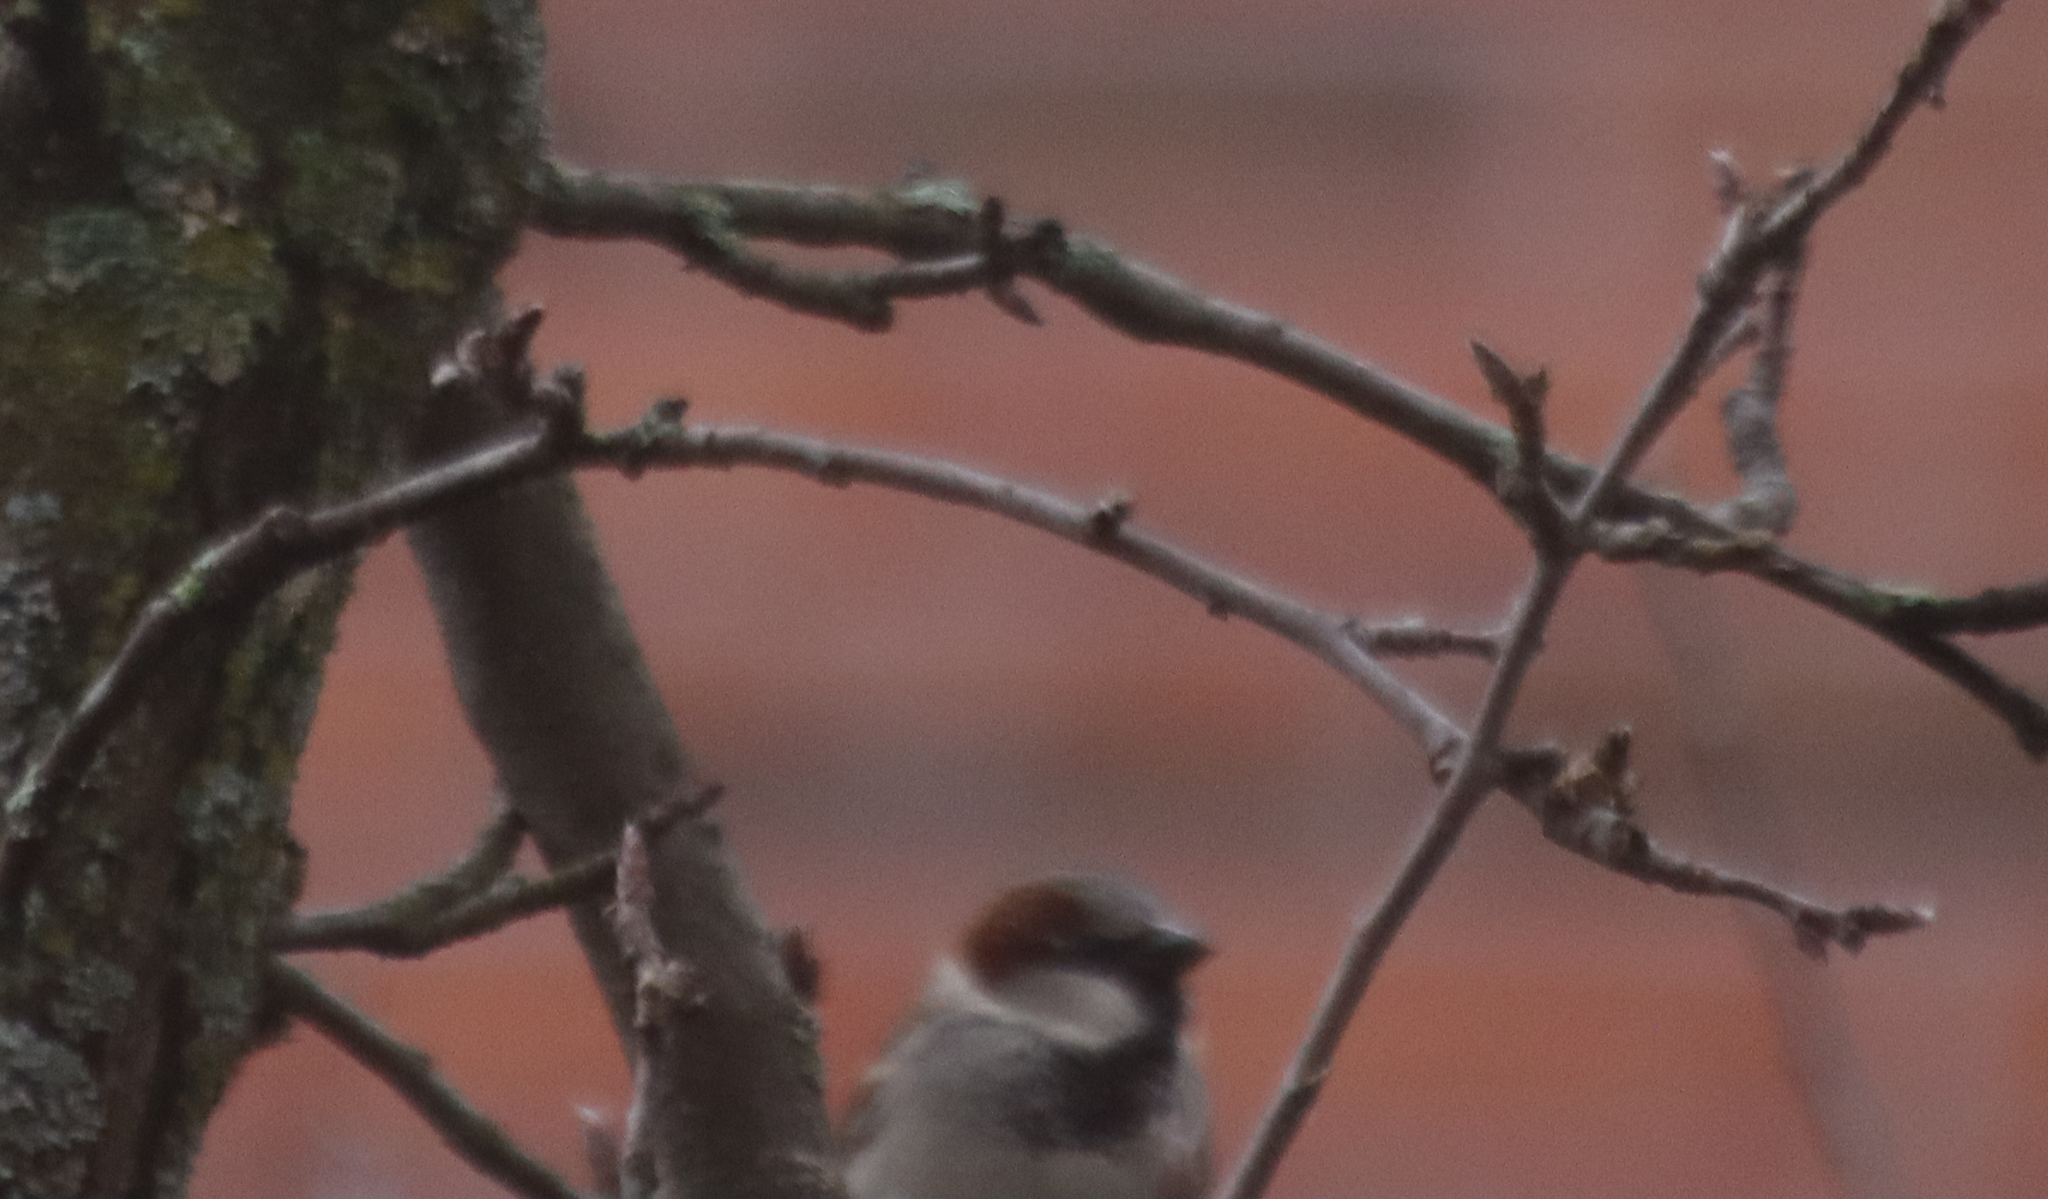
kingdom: Animalia
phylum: Chordata
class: Aves
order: Passeriformes
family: Passeridae
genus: Passer
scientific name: Passer domesticus
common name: House sparrow
